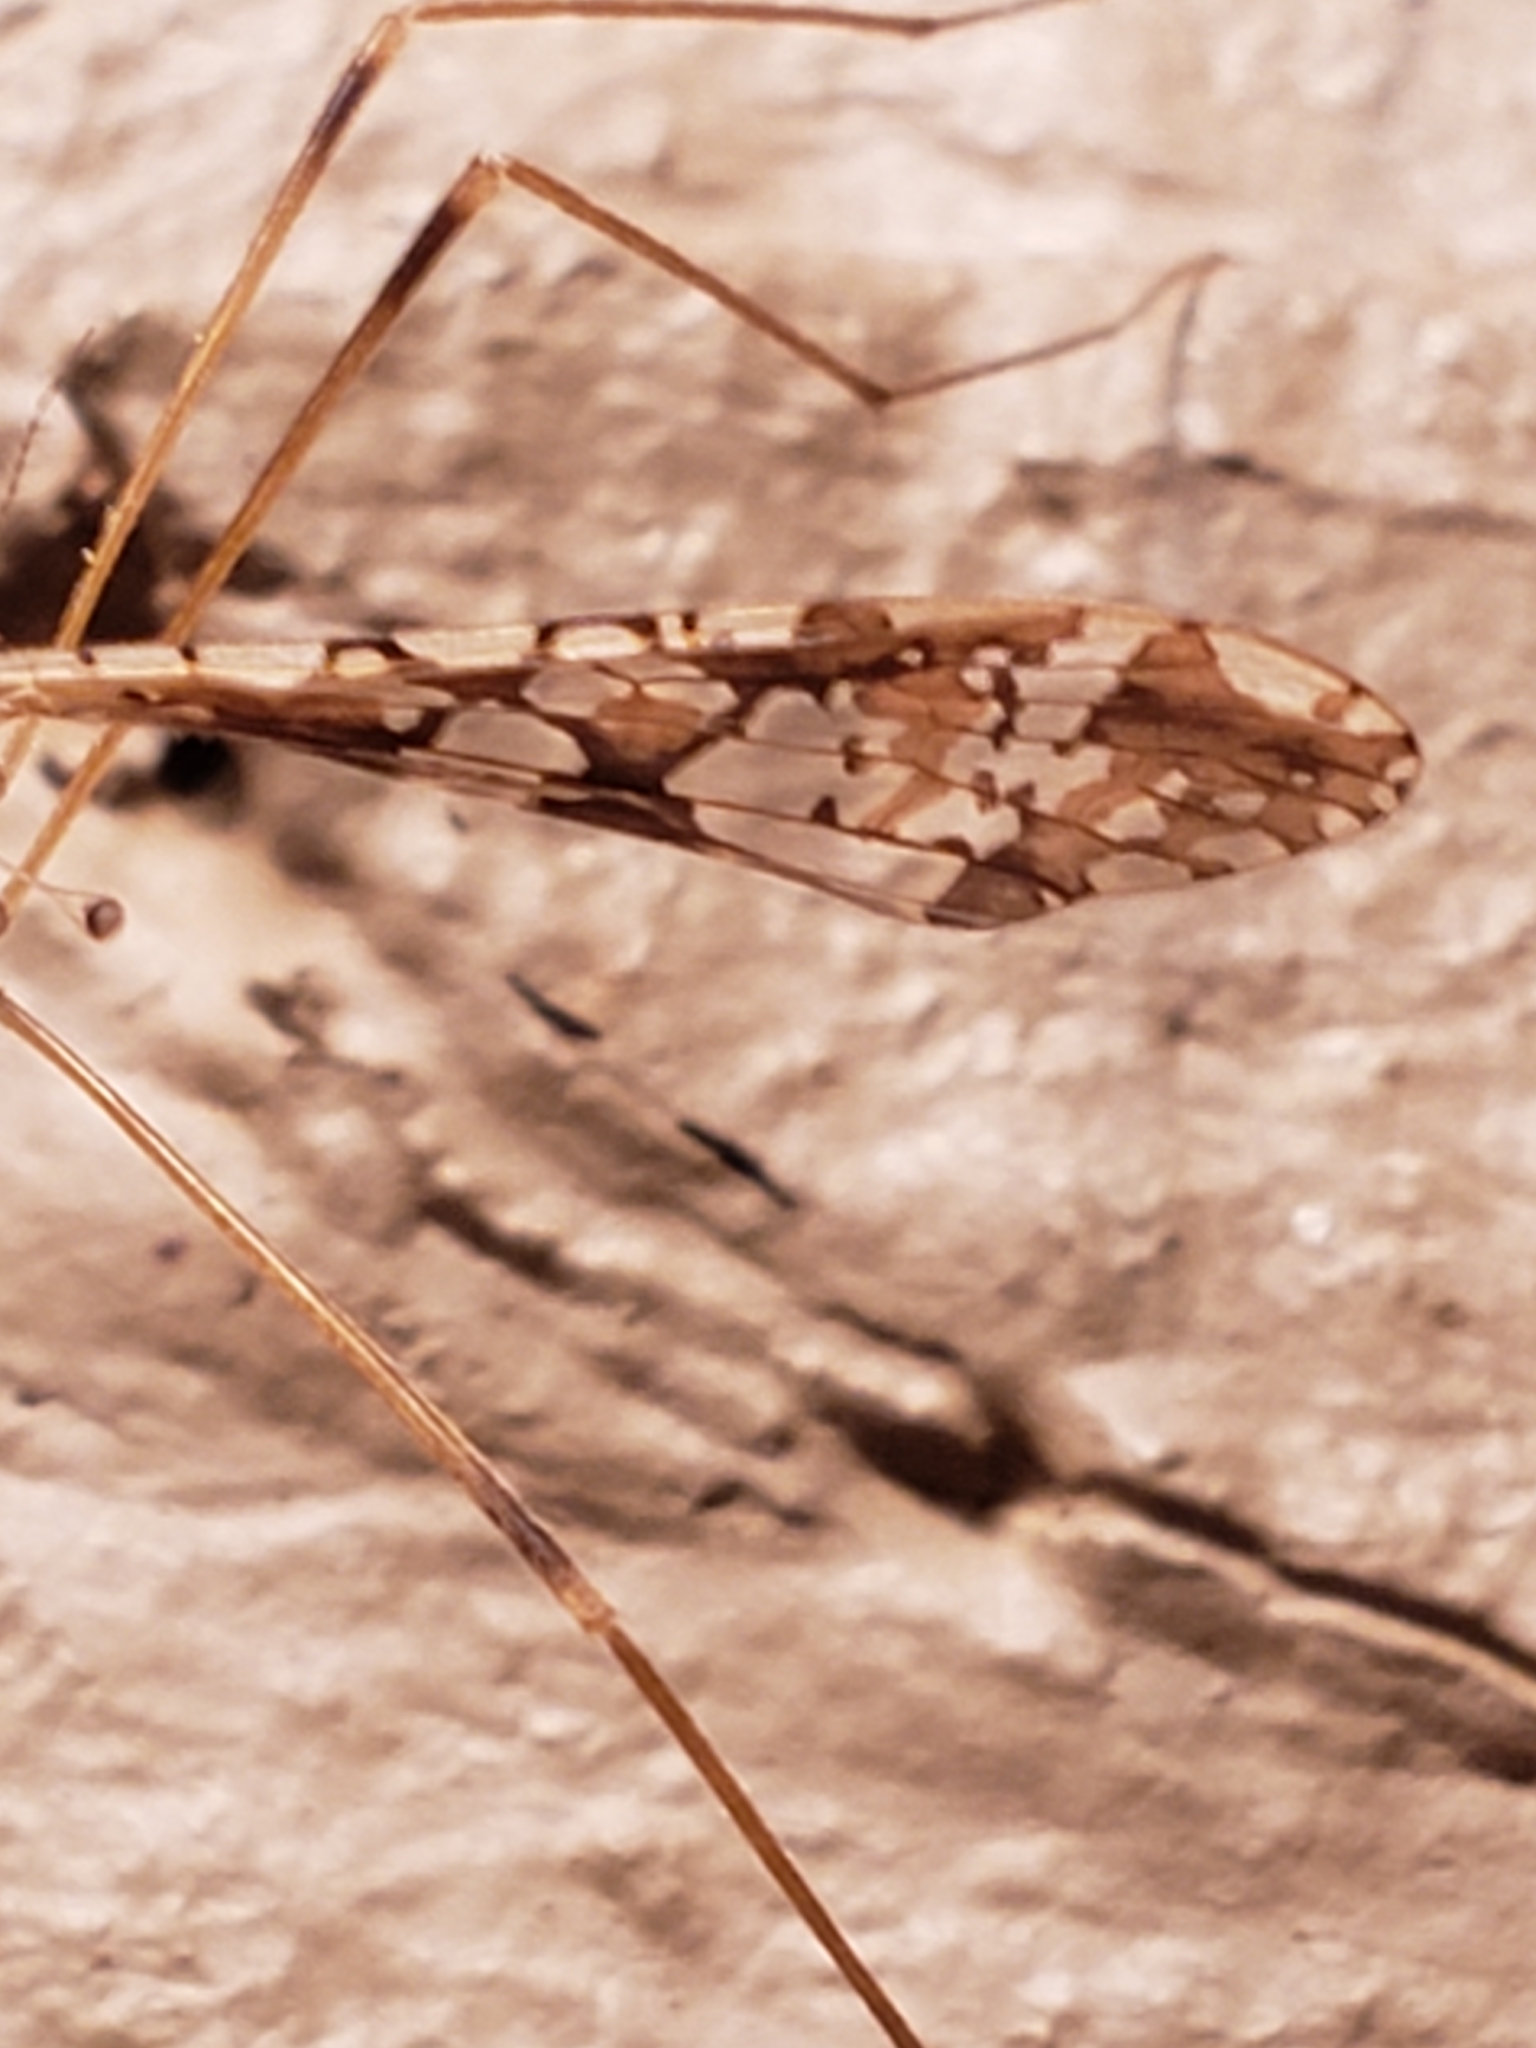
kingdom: Animalia
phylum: Arthropoda
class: Insecta
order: Diptera
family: Limoniidae
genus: Epiphragma
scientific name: Epiphragma solatrix
